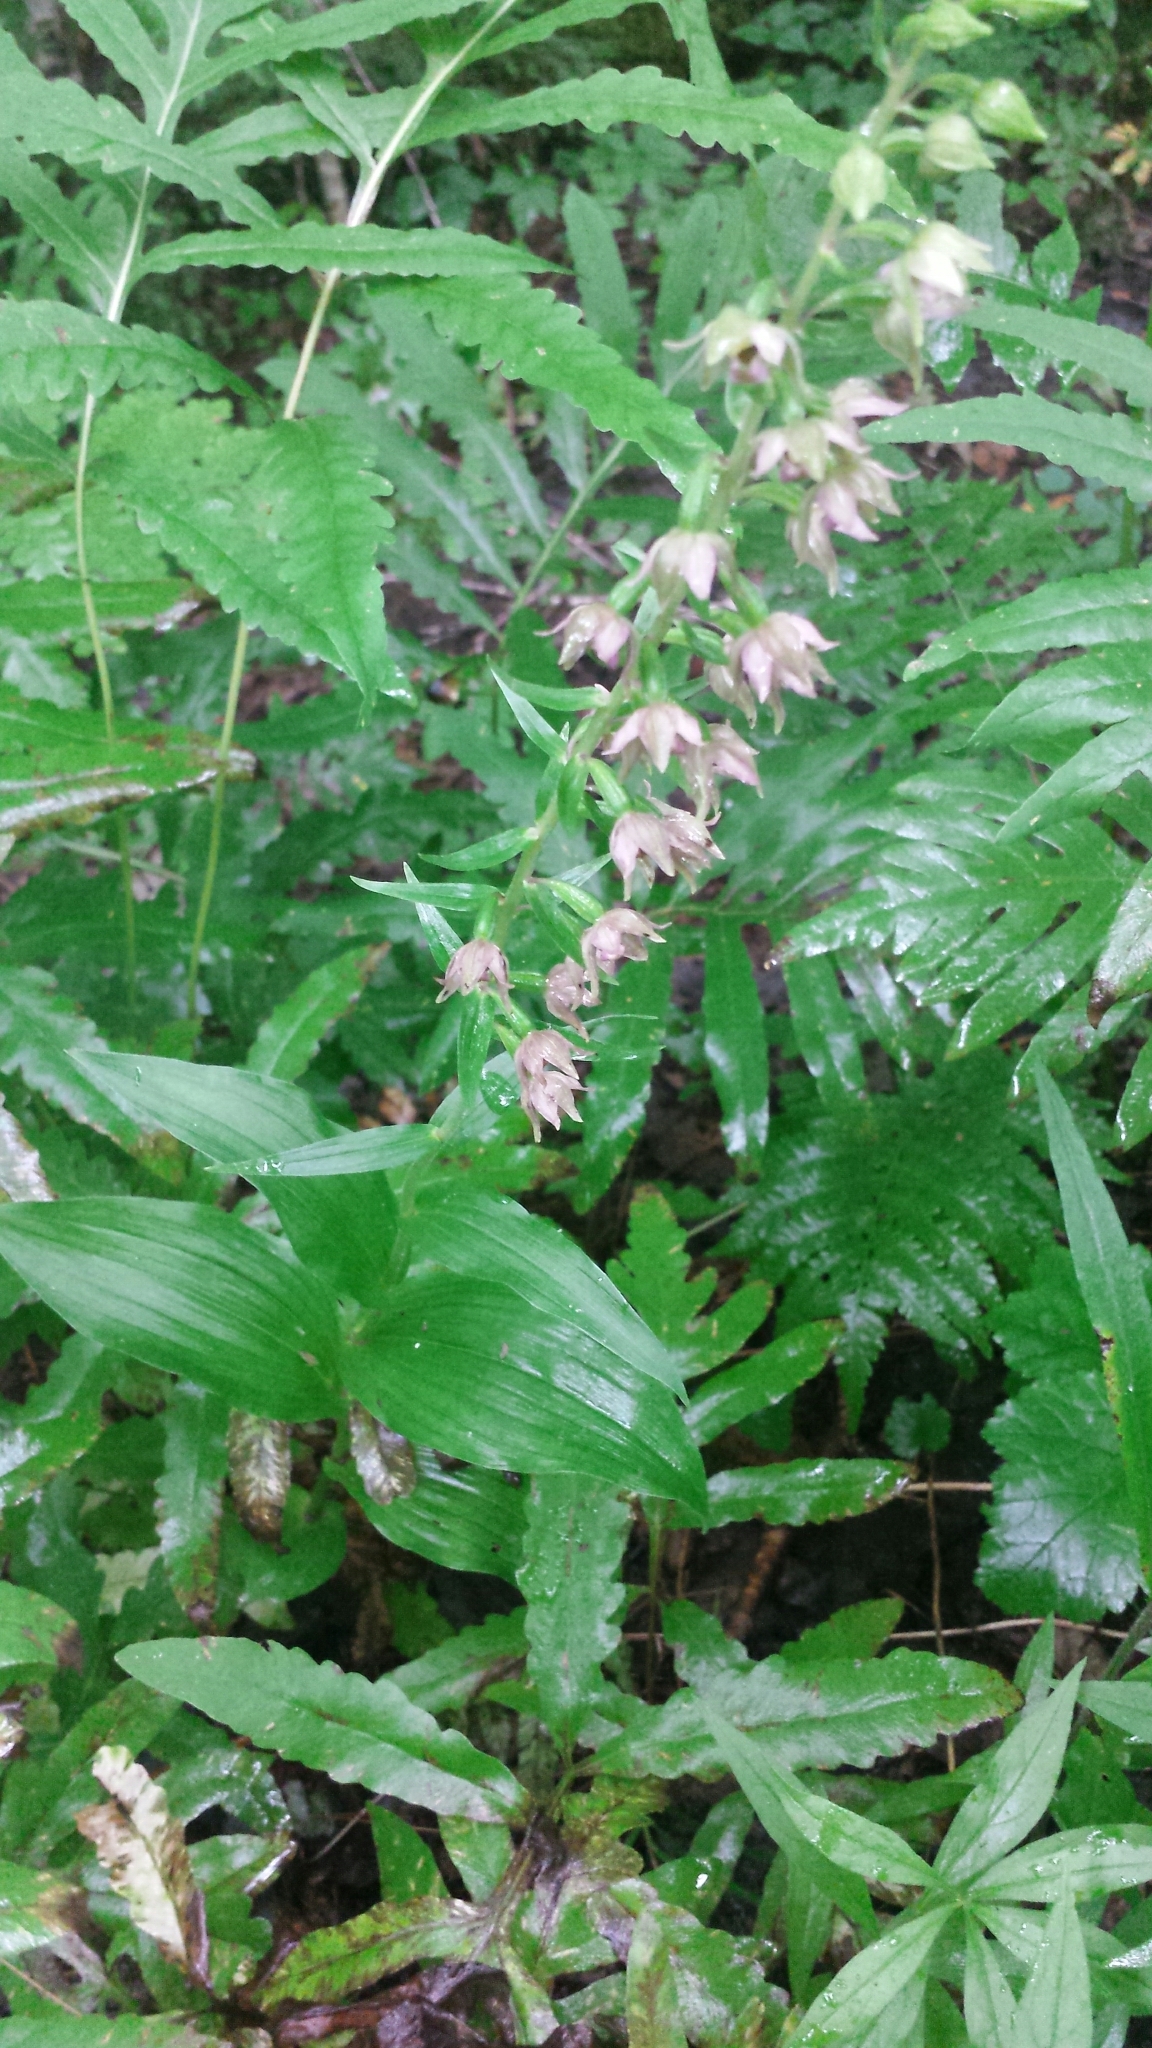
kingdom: Plantae
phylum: Tracheophyta
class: Liliopsida
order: Asparagales
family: Orchidaceae
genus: Epipactis
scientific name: Epipactis helleborine
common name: Broad-leaved helleborine
